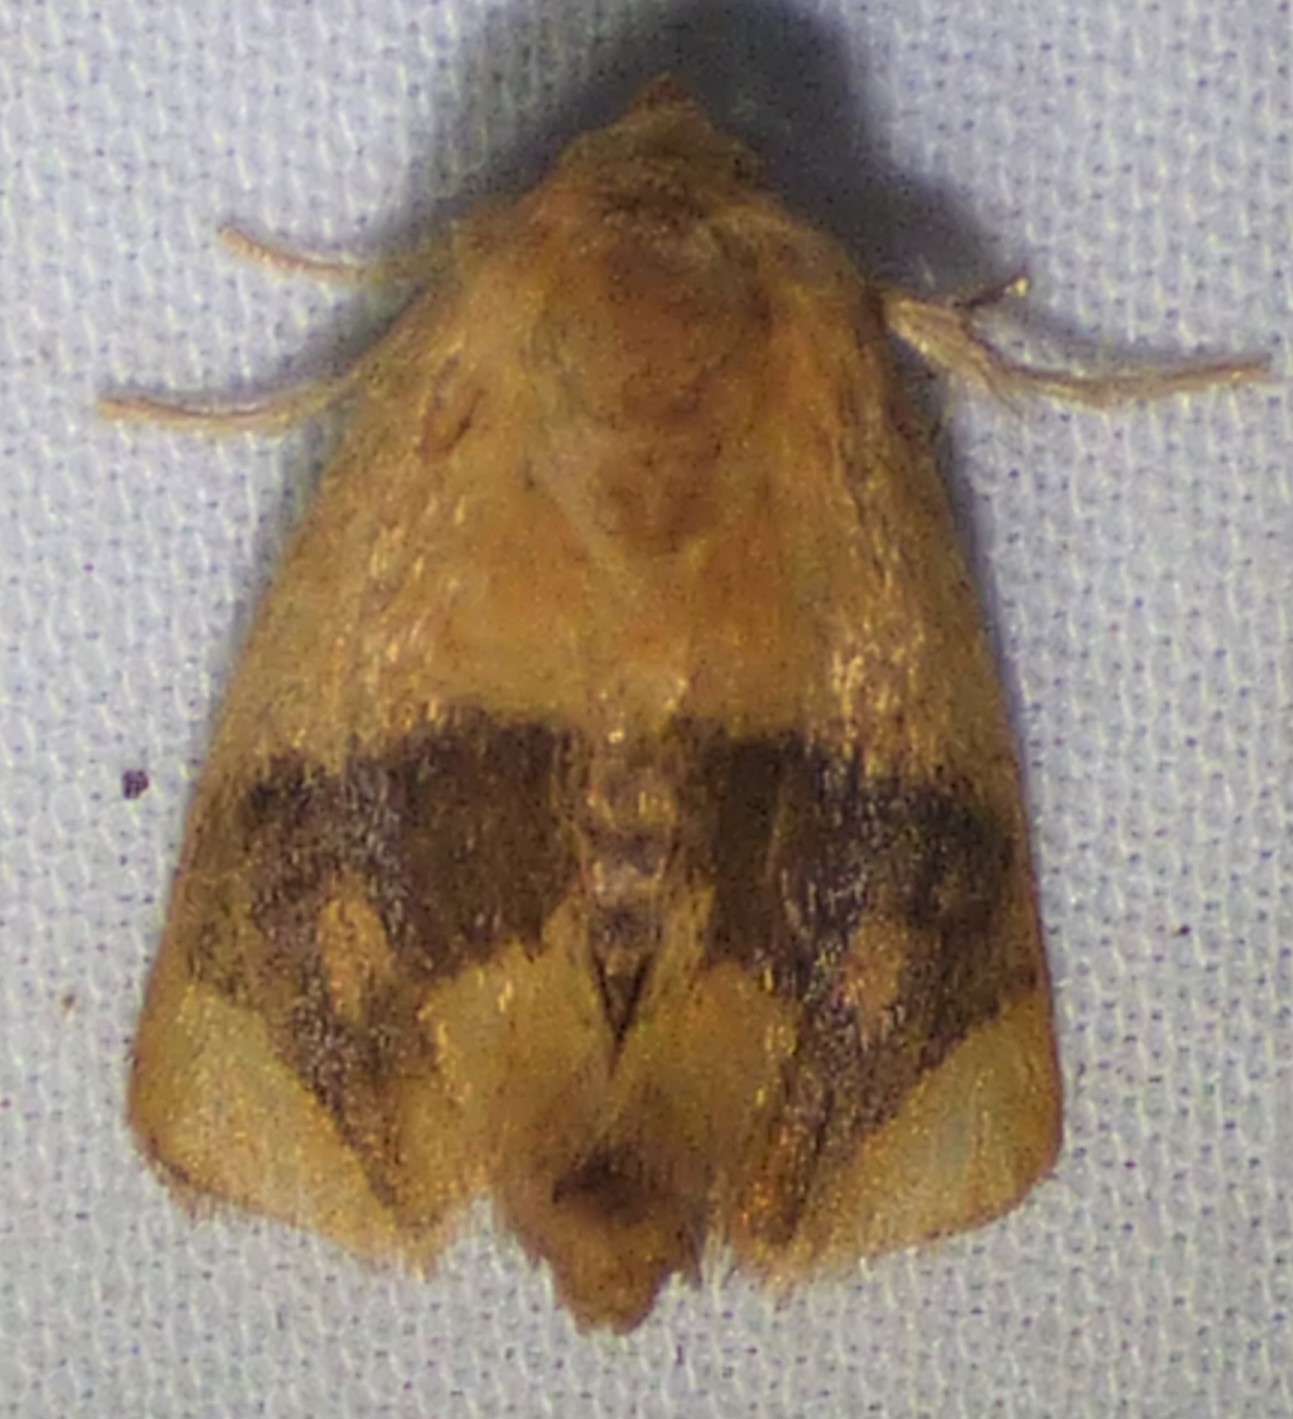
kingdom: Animalia
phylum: Arthropoda
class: Insecta
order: Lepidoptera
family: Limacodidae
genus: Apoda
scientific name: Apoda y-inversa
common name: Yellow-collared slug moth
